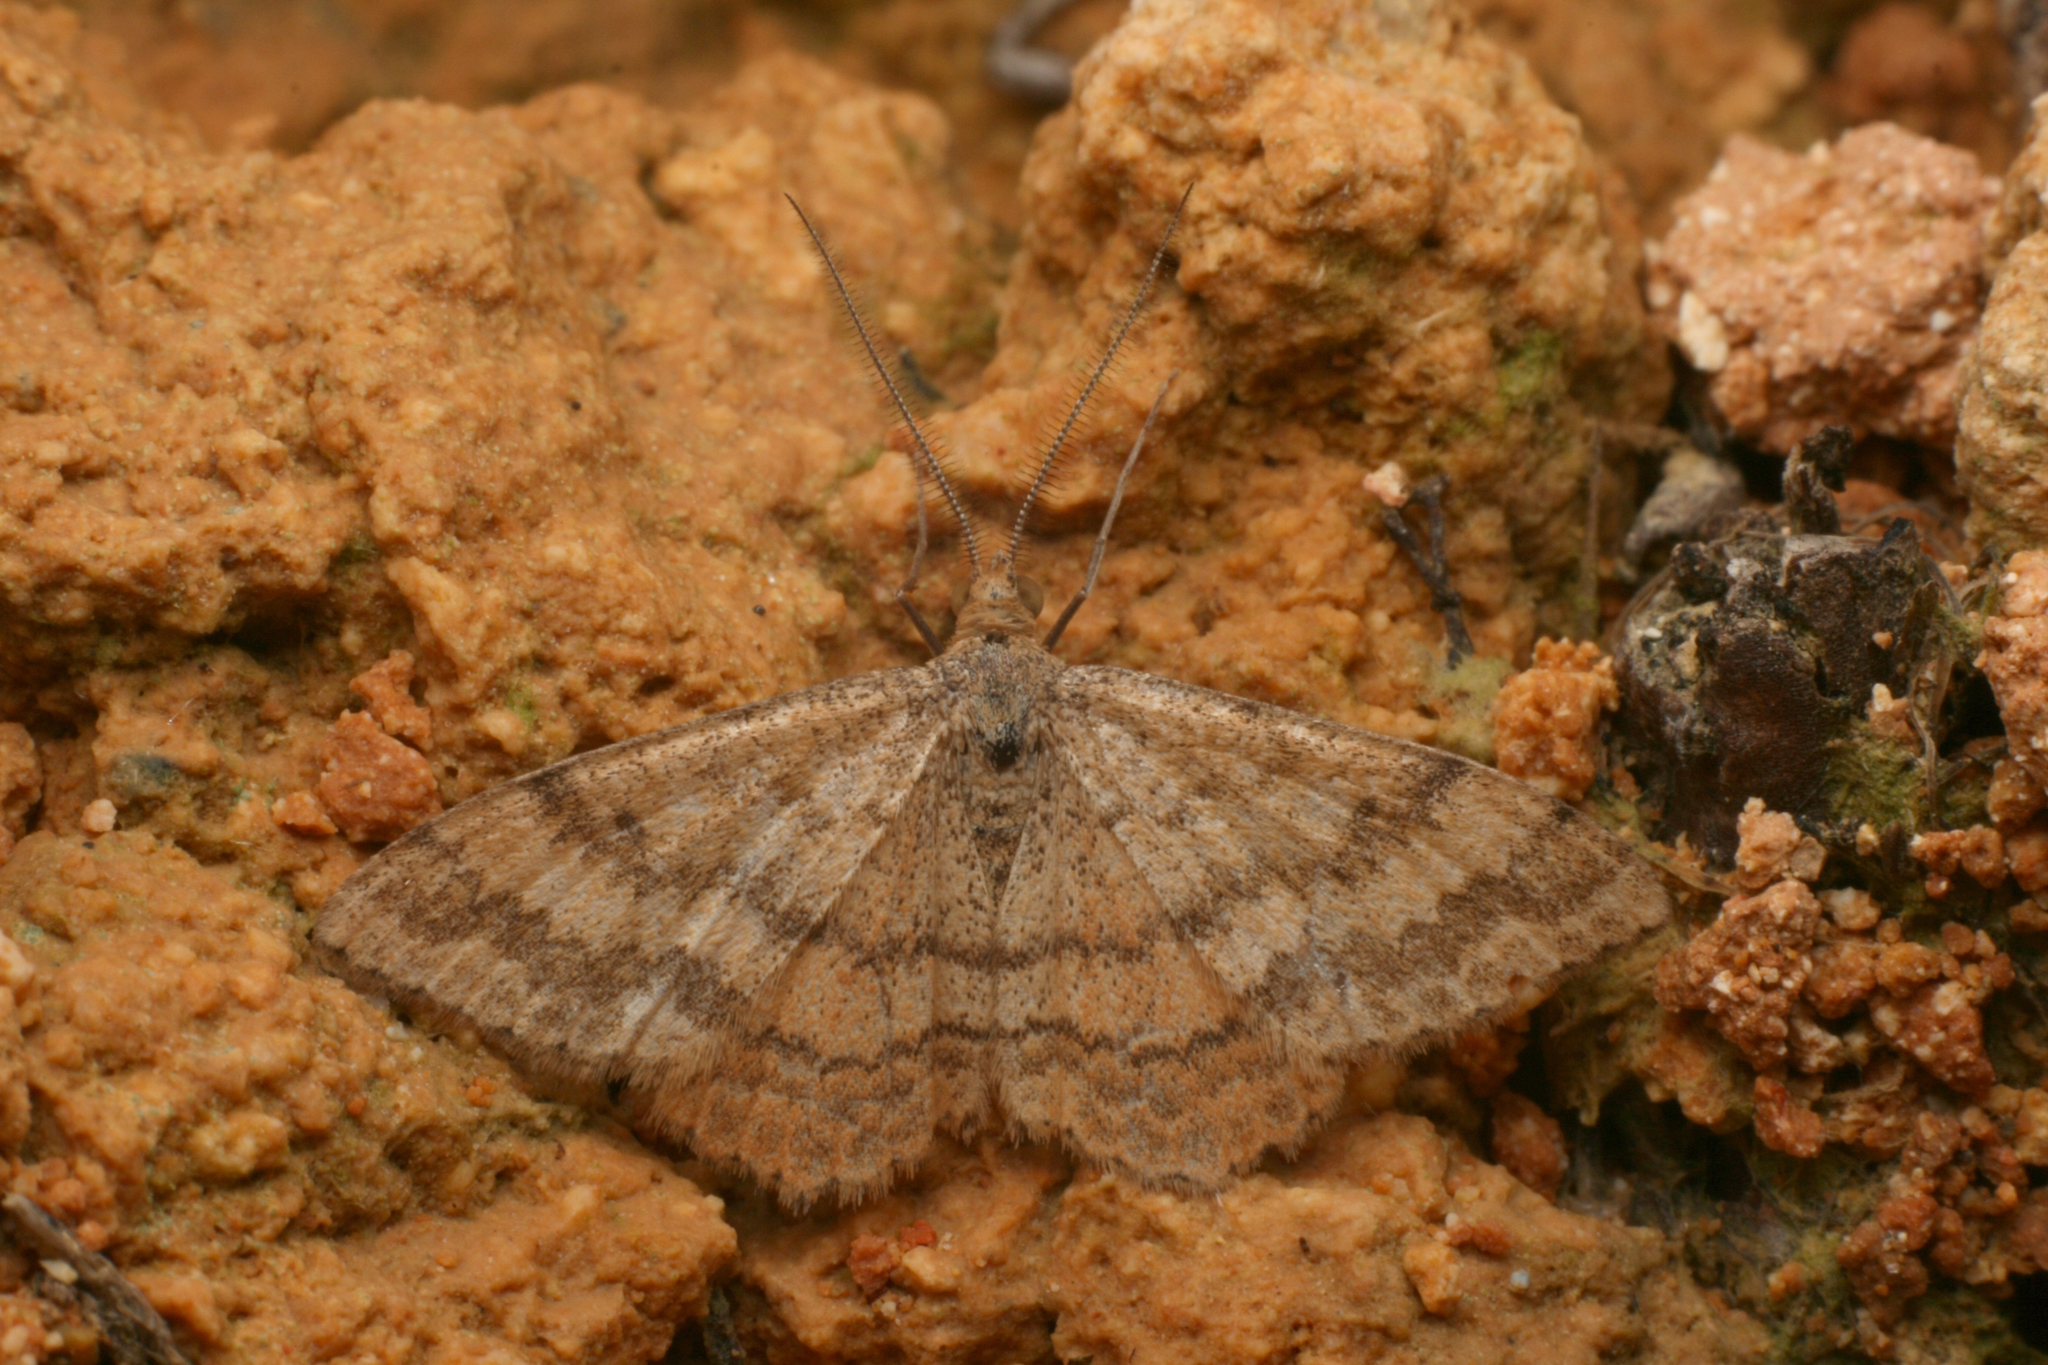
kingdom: Animalia
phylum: Arthropoda
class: Insecta
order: Lepidoptera
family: Geometridae
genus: Scopula
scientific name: Scopula rubraria
